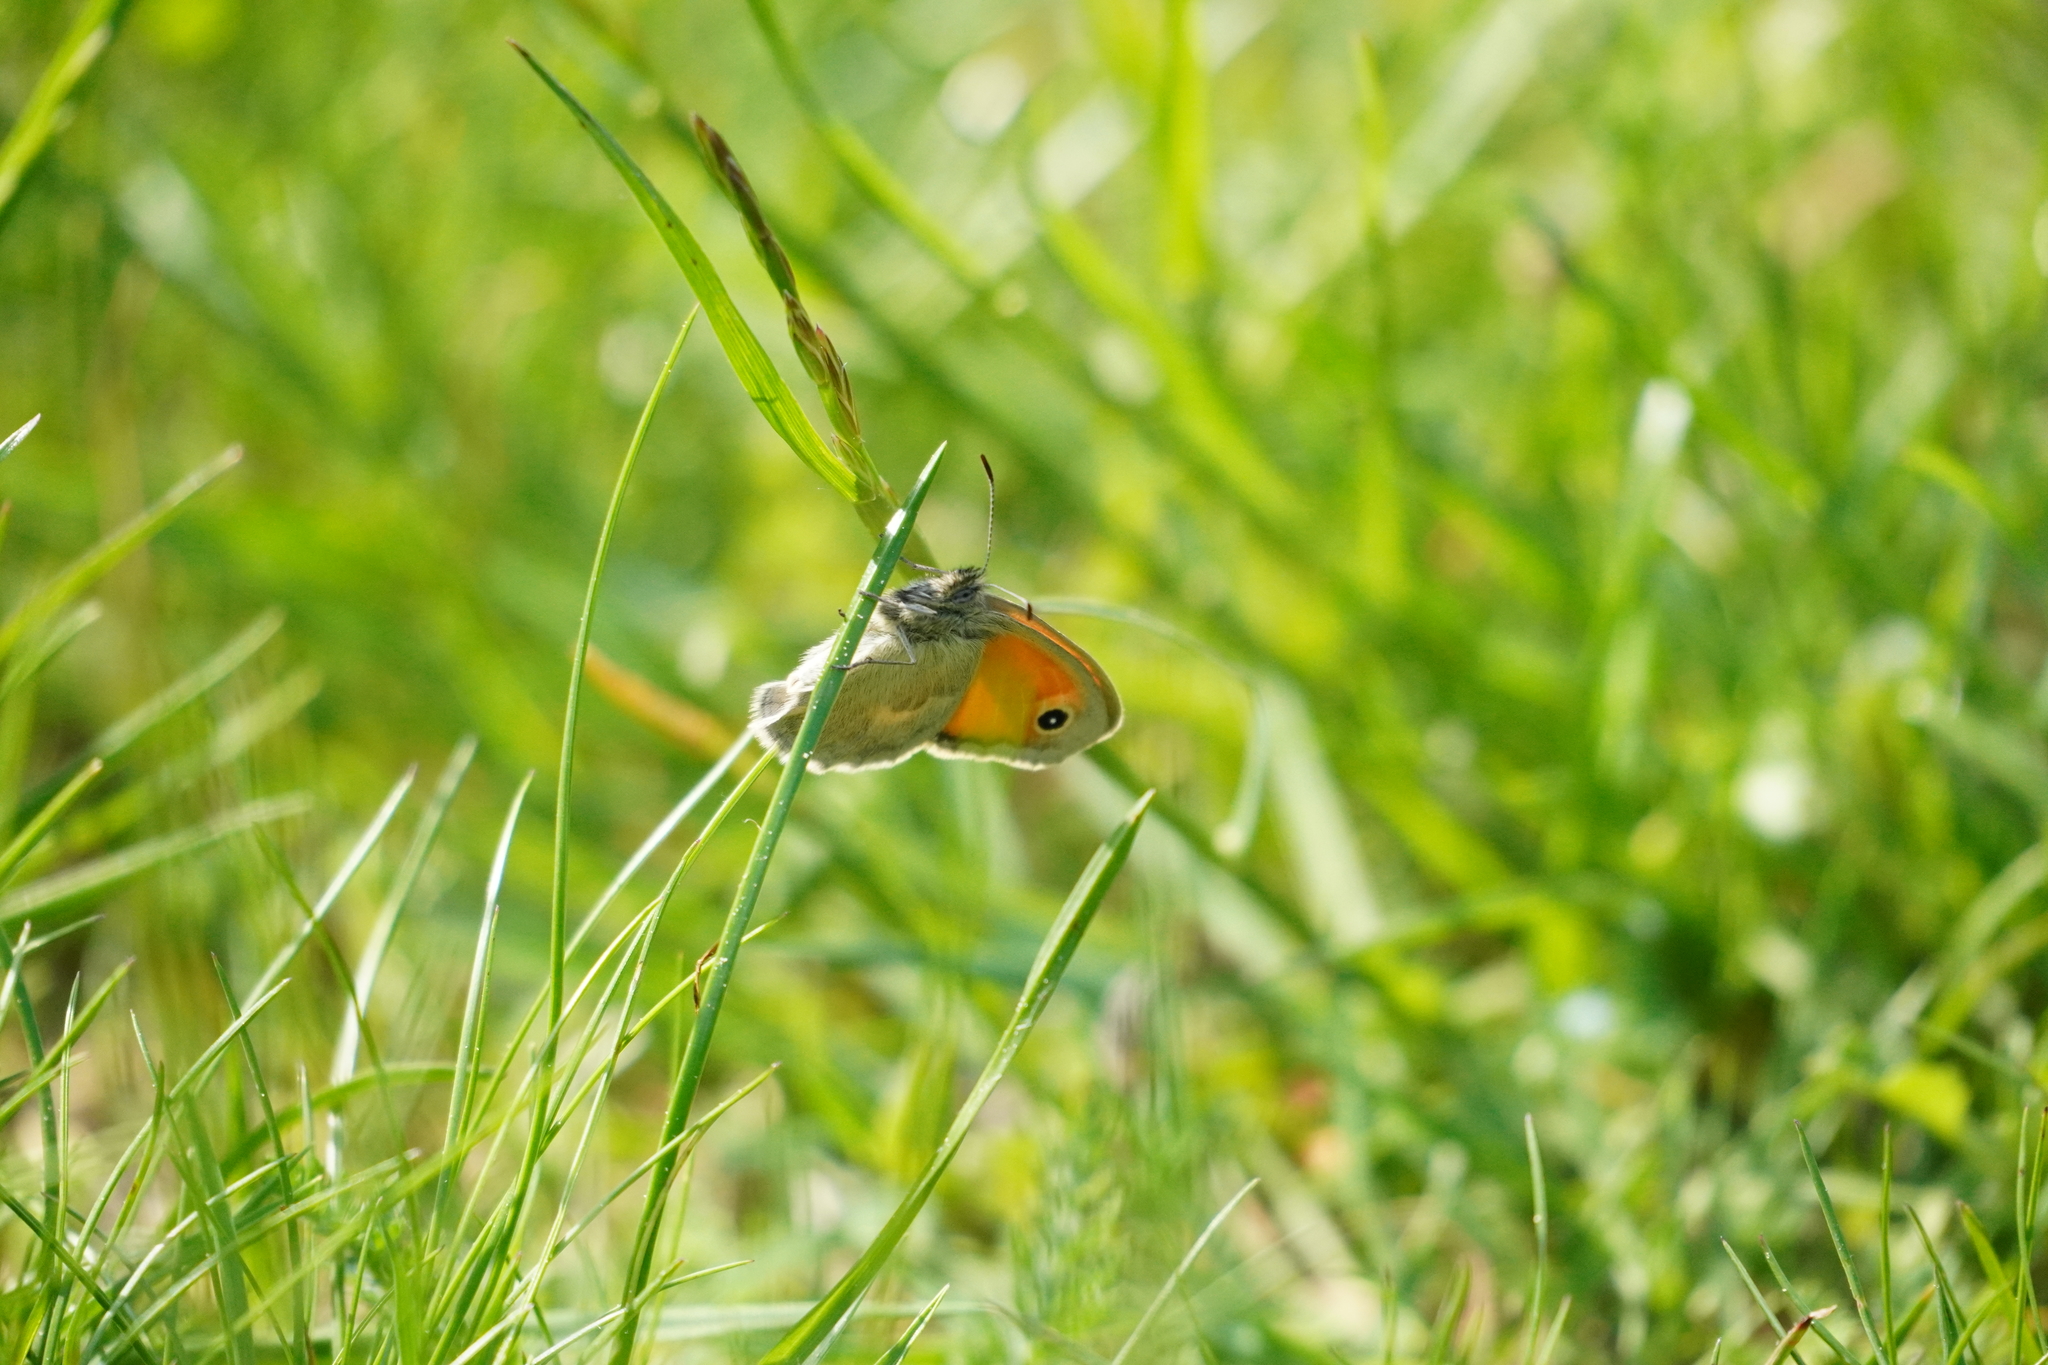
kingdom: Animalia
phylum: Arthropoda
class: Insecta
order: Lepidoptera
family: Nymphalidae
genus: Coenonympha
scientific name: Coenonympha pamphilus
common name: Small heath
